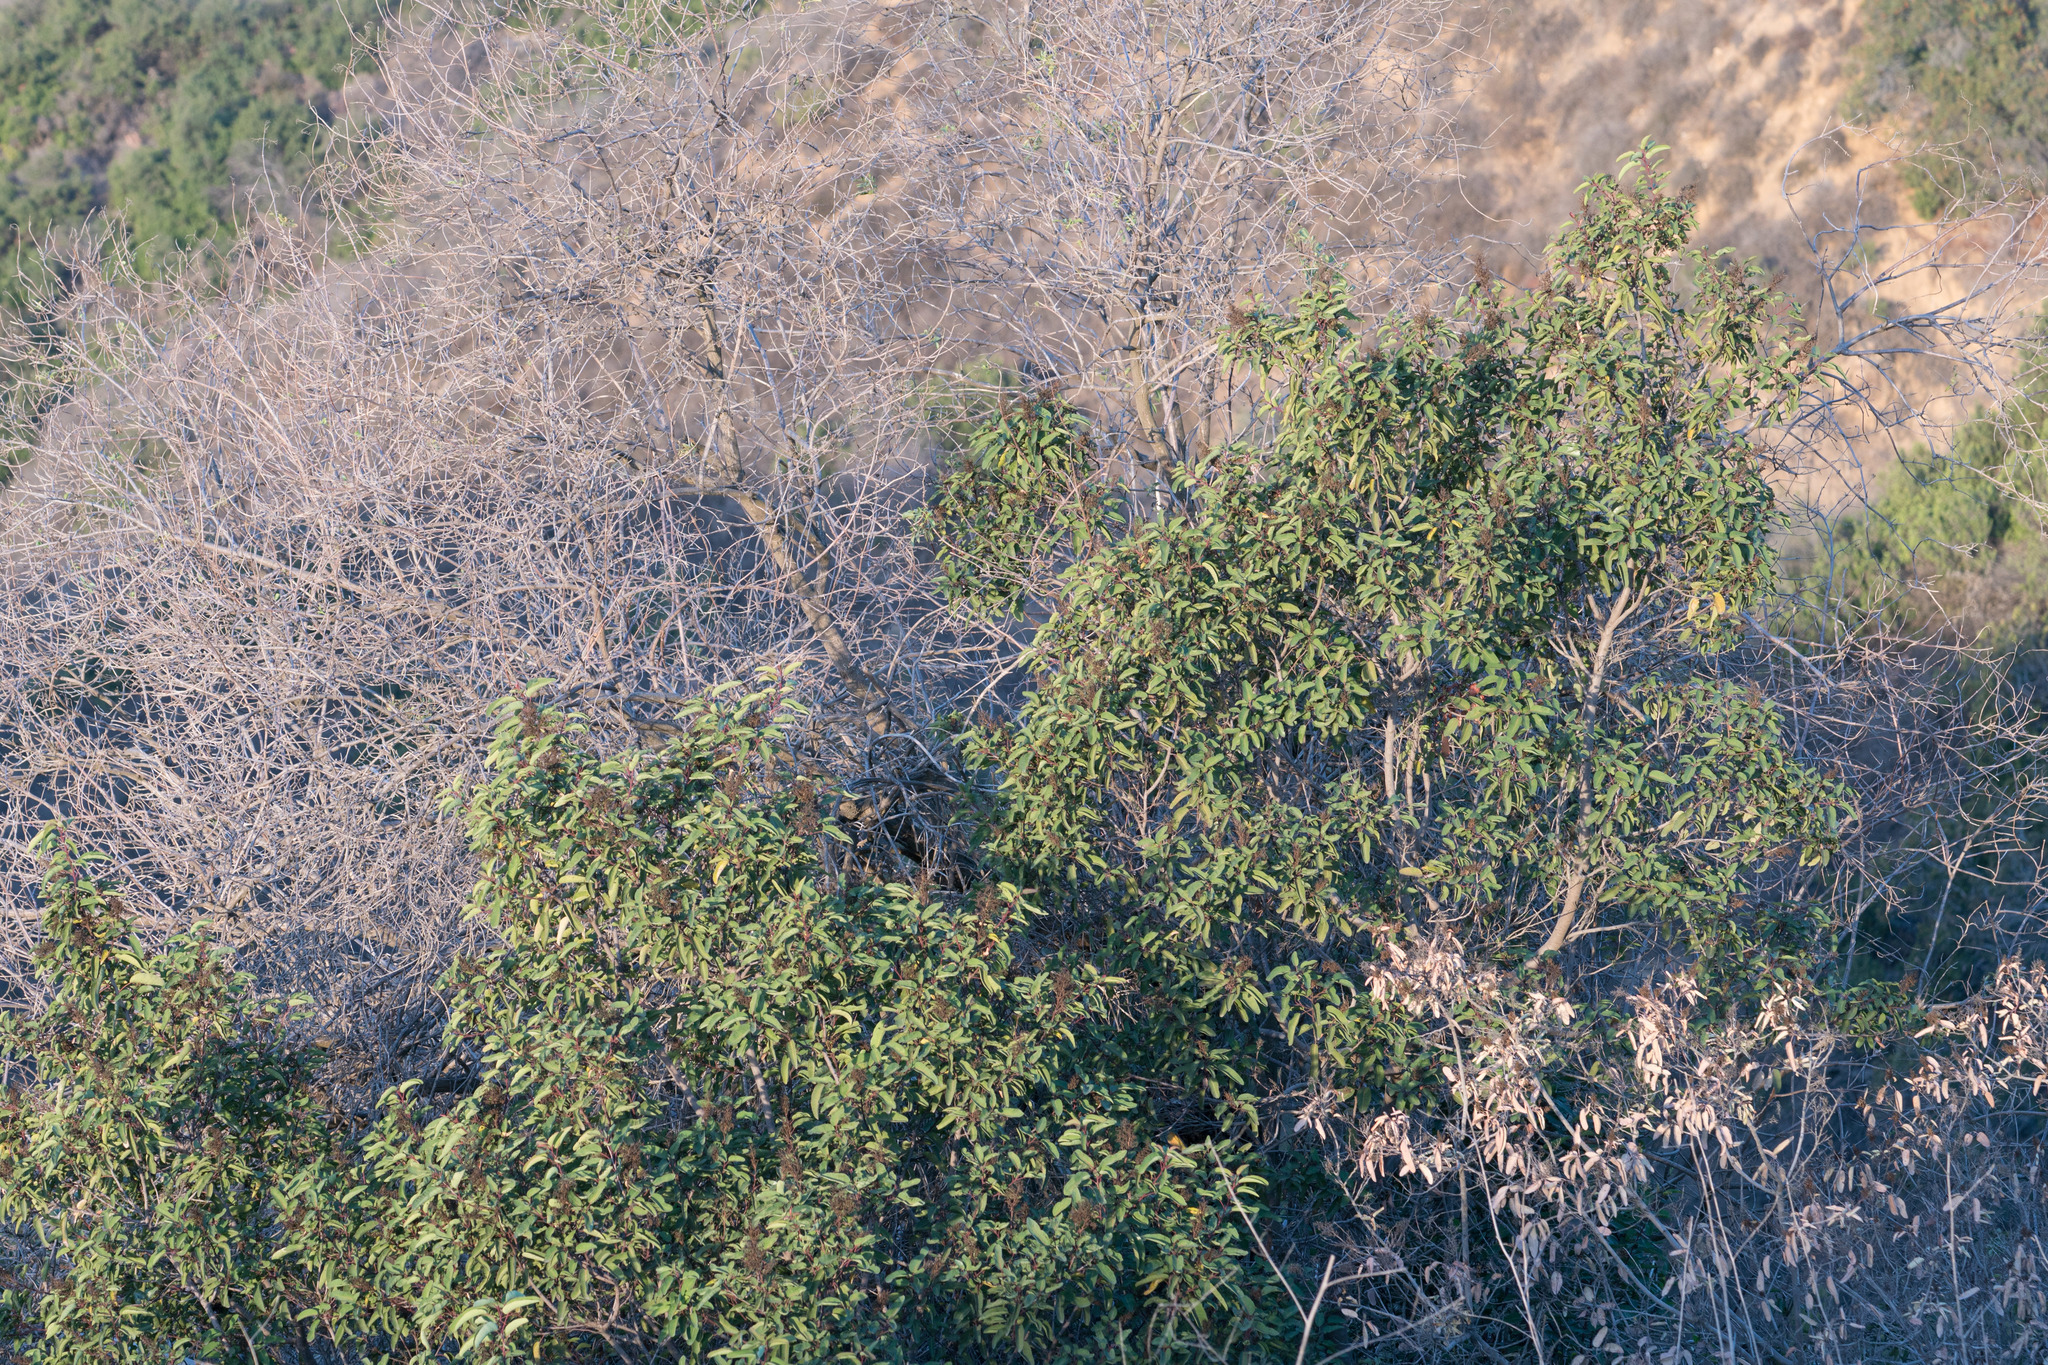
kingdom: Plantae
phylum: Tracheophyta
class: Magnoliopsida
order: Sapindales
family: Anacardiaceae
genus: Malosma
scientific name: Malosma laurina
